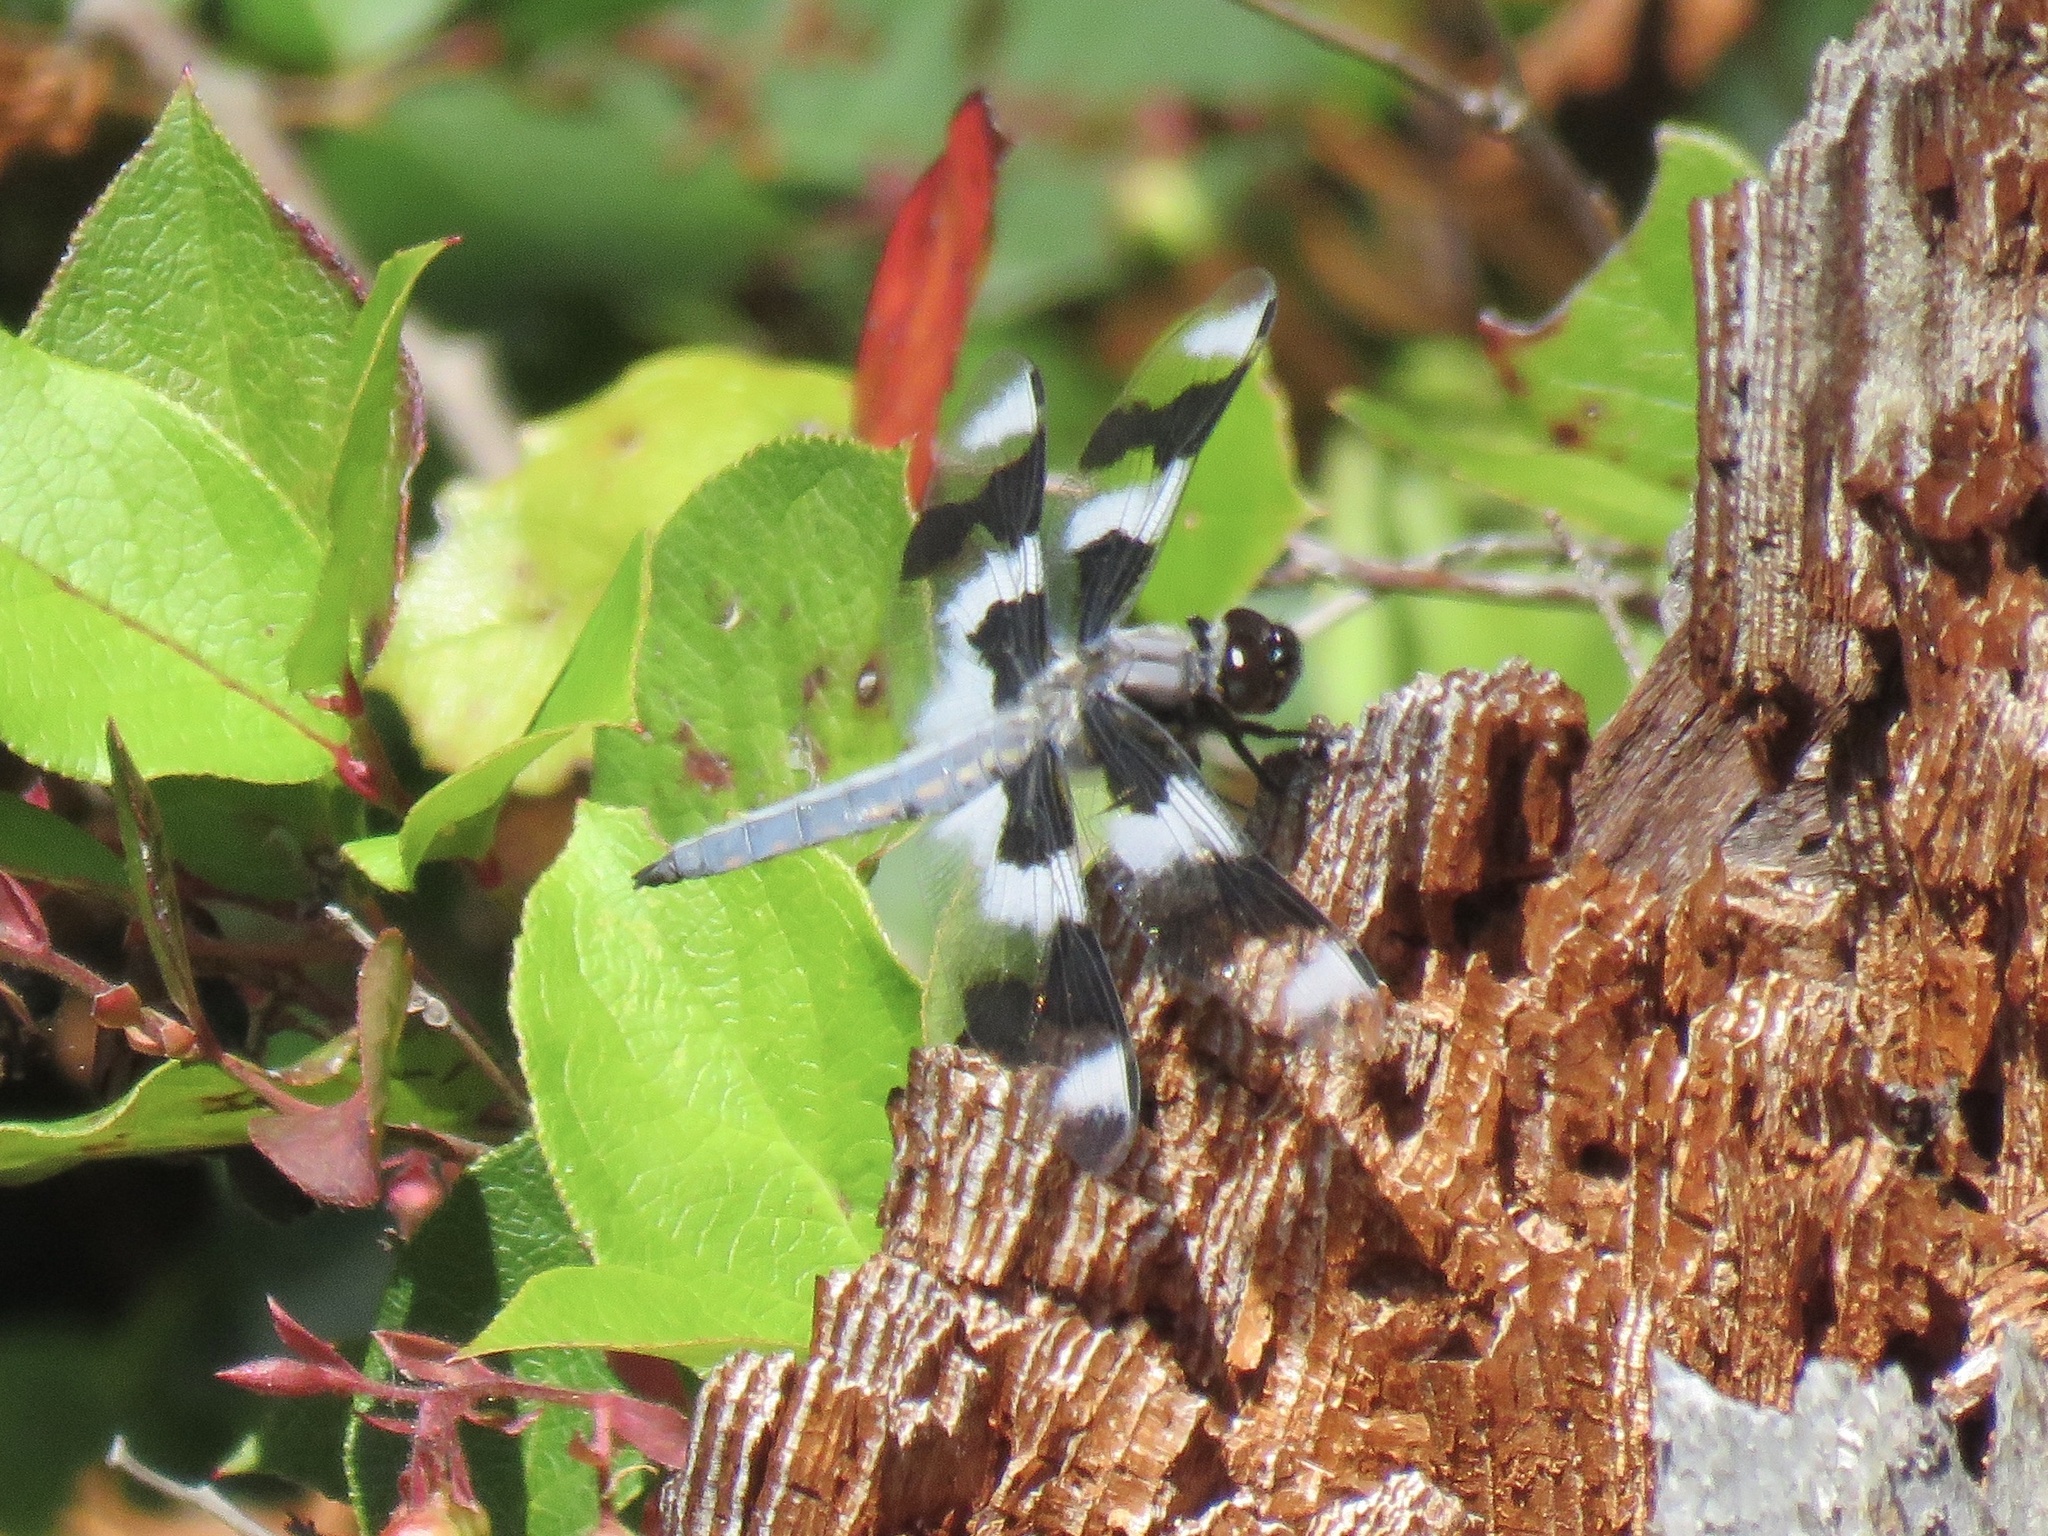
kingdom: Animalia
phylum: Arthropoda
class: Insecta
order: Odonata
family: Libellulidae
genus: Libellula
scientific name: Libellula forensis
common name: Eight-spotted skimmer
